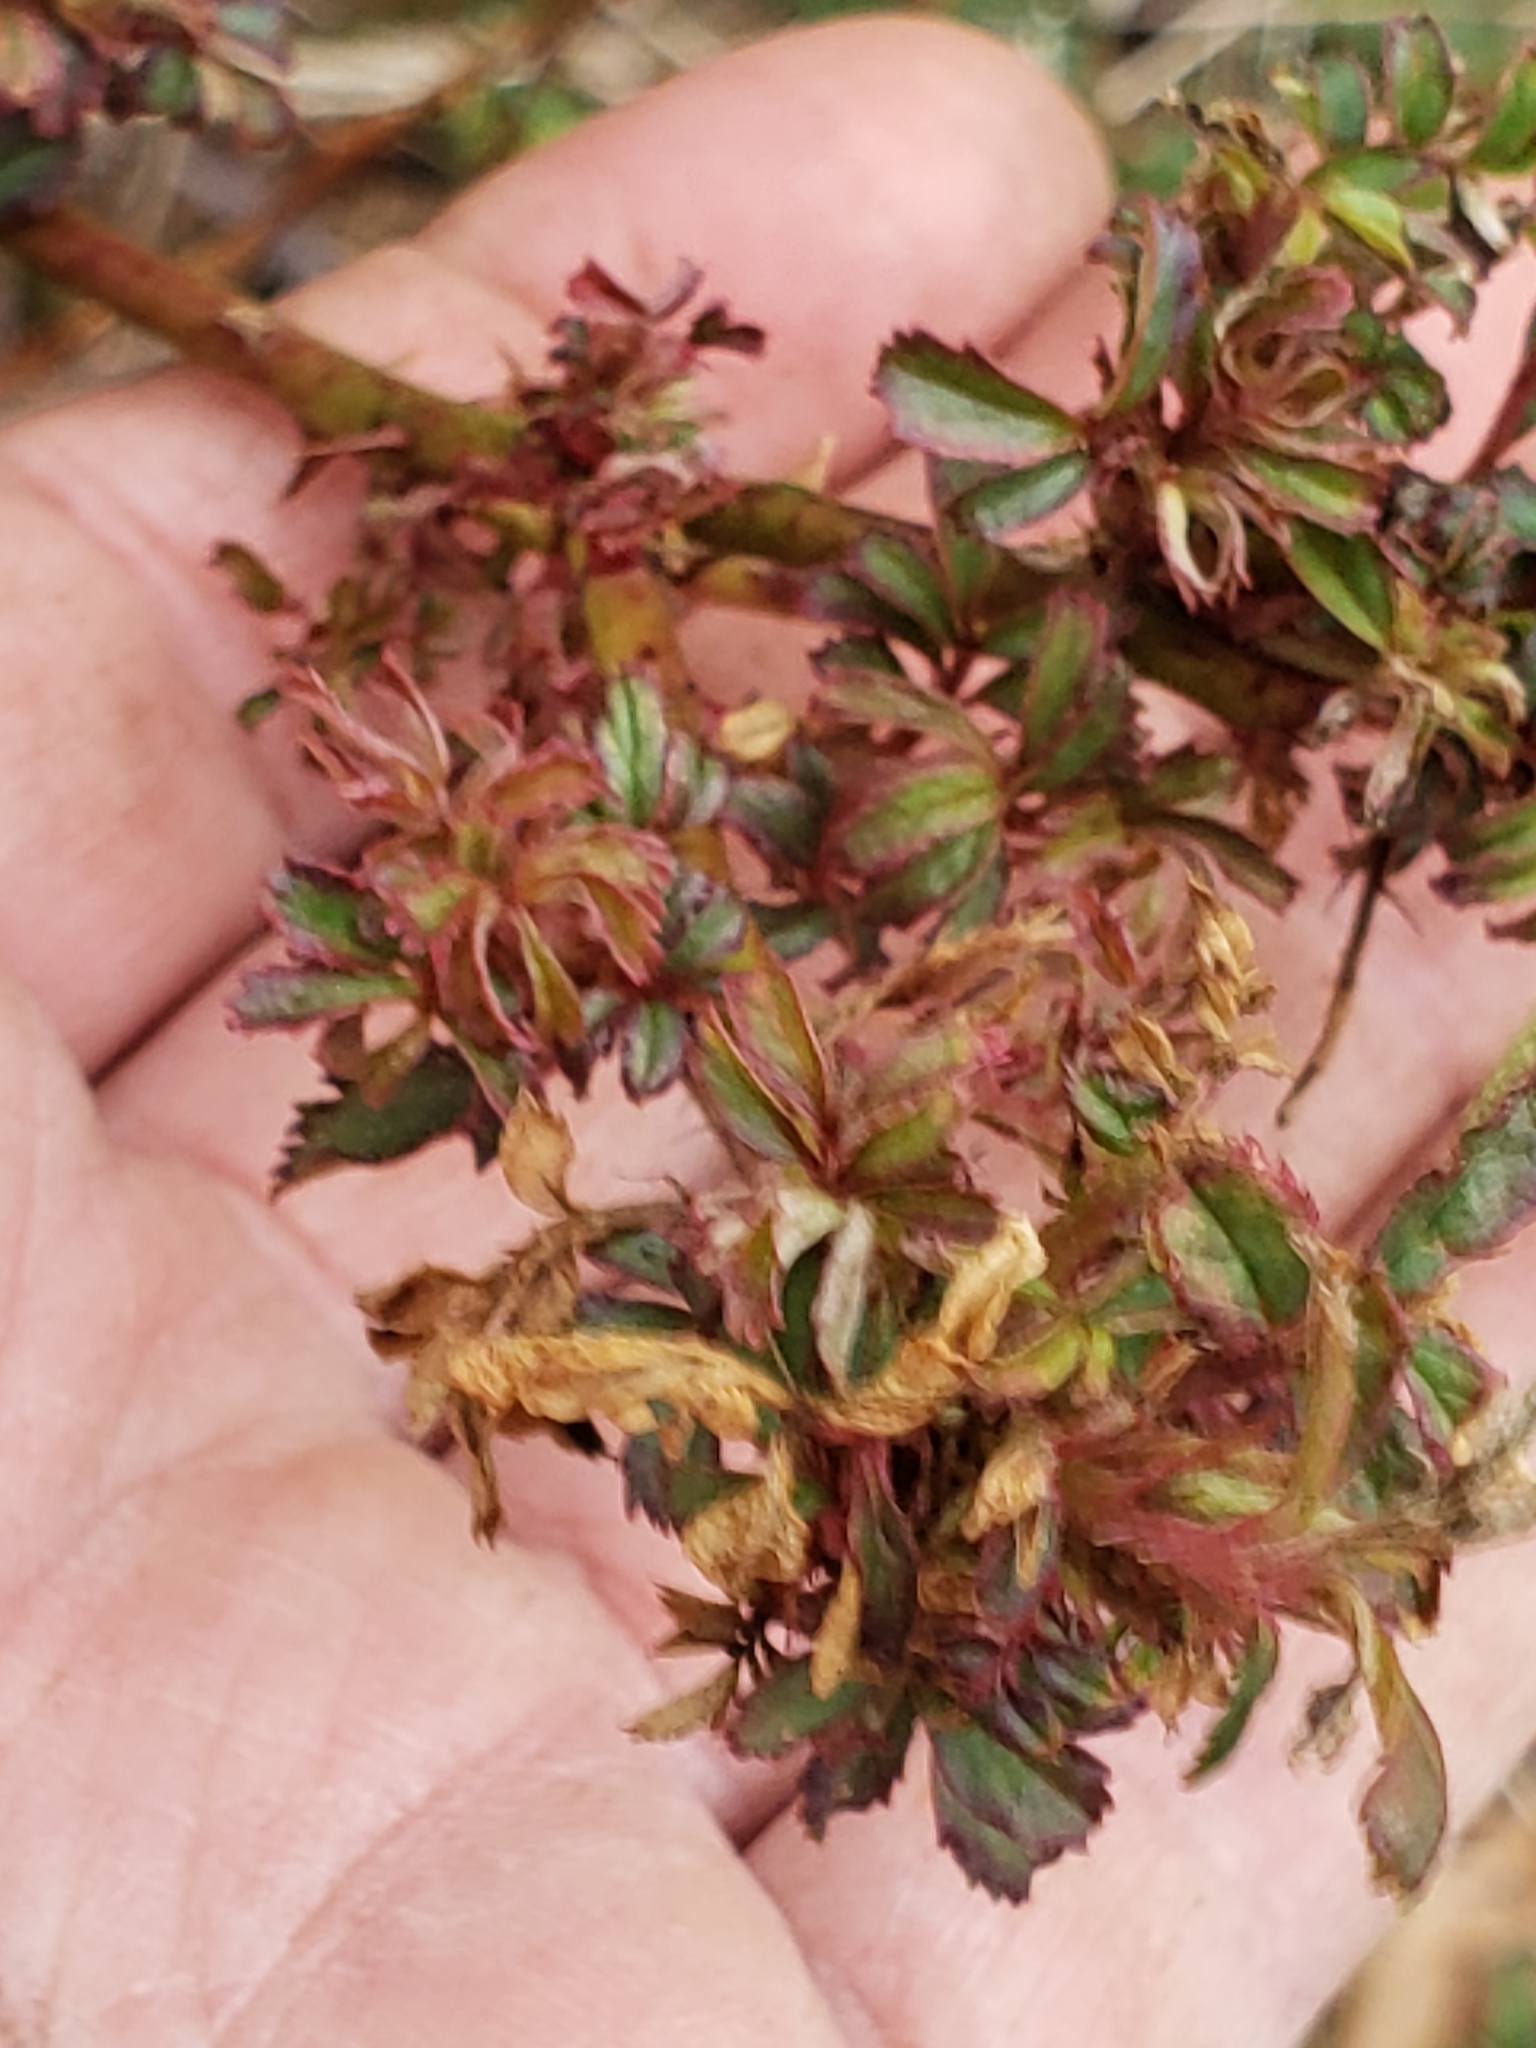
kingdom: Viruses
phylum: Negarnaviricota
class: Ellioviricetes
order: Bunyavirales
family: Fimoviridae
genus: Emaravirus
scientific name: Emaravirus rosae
